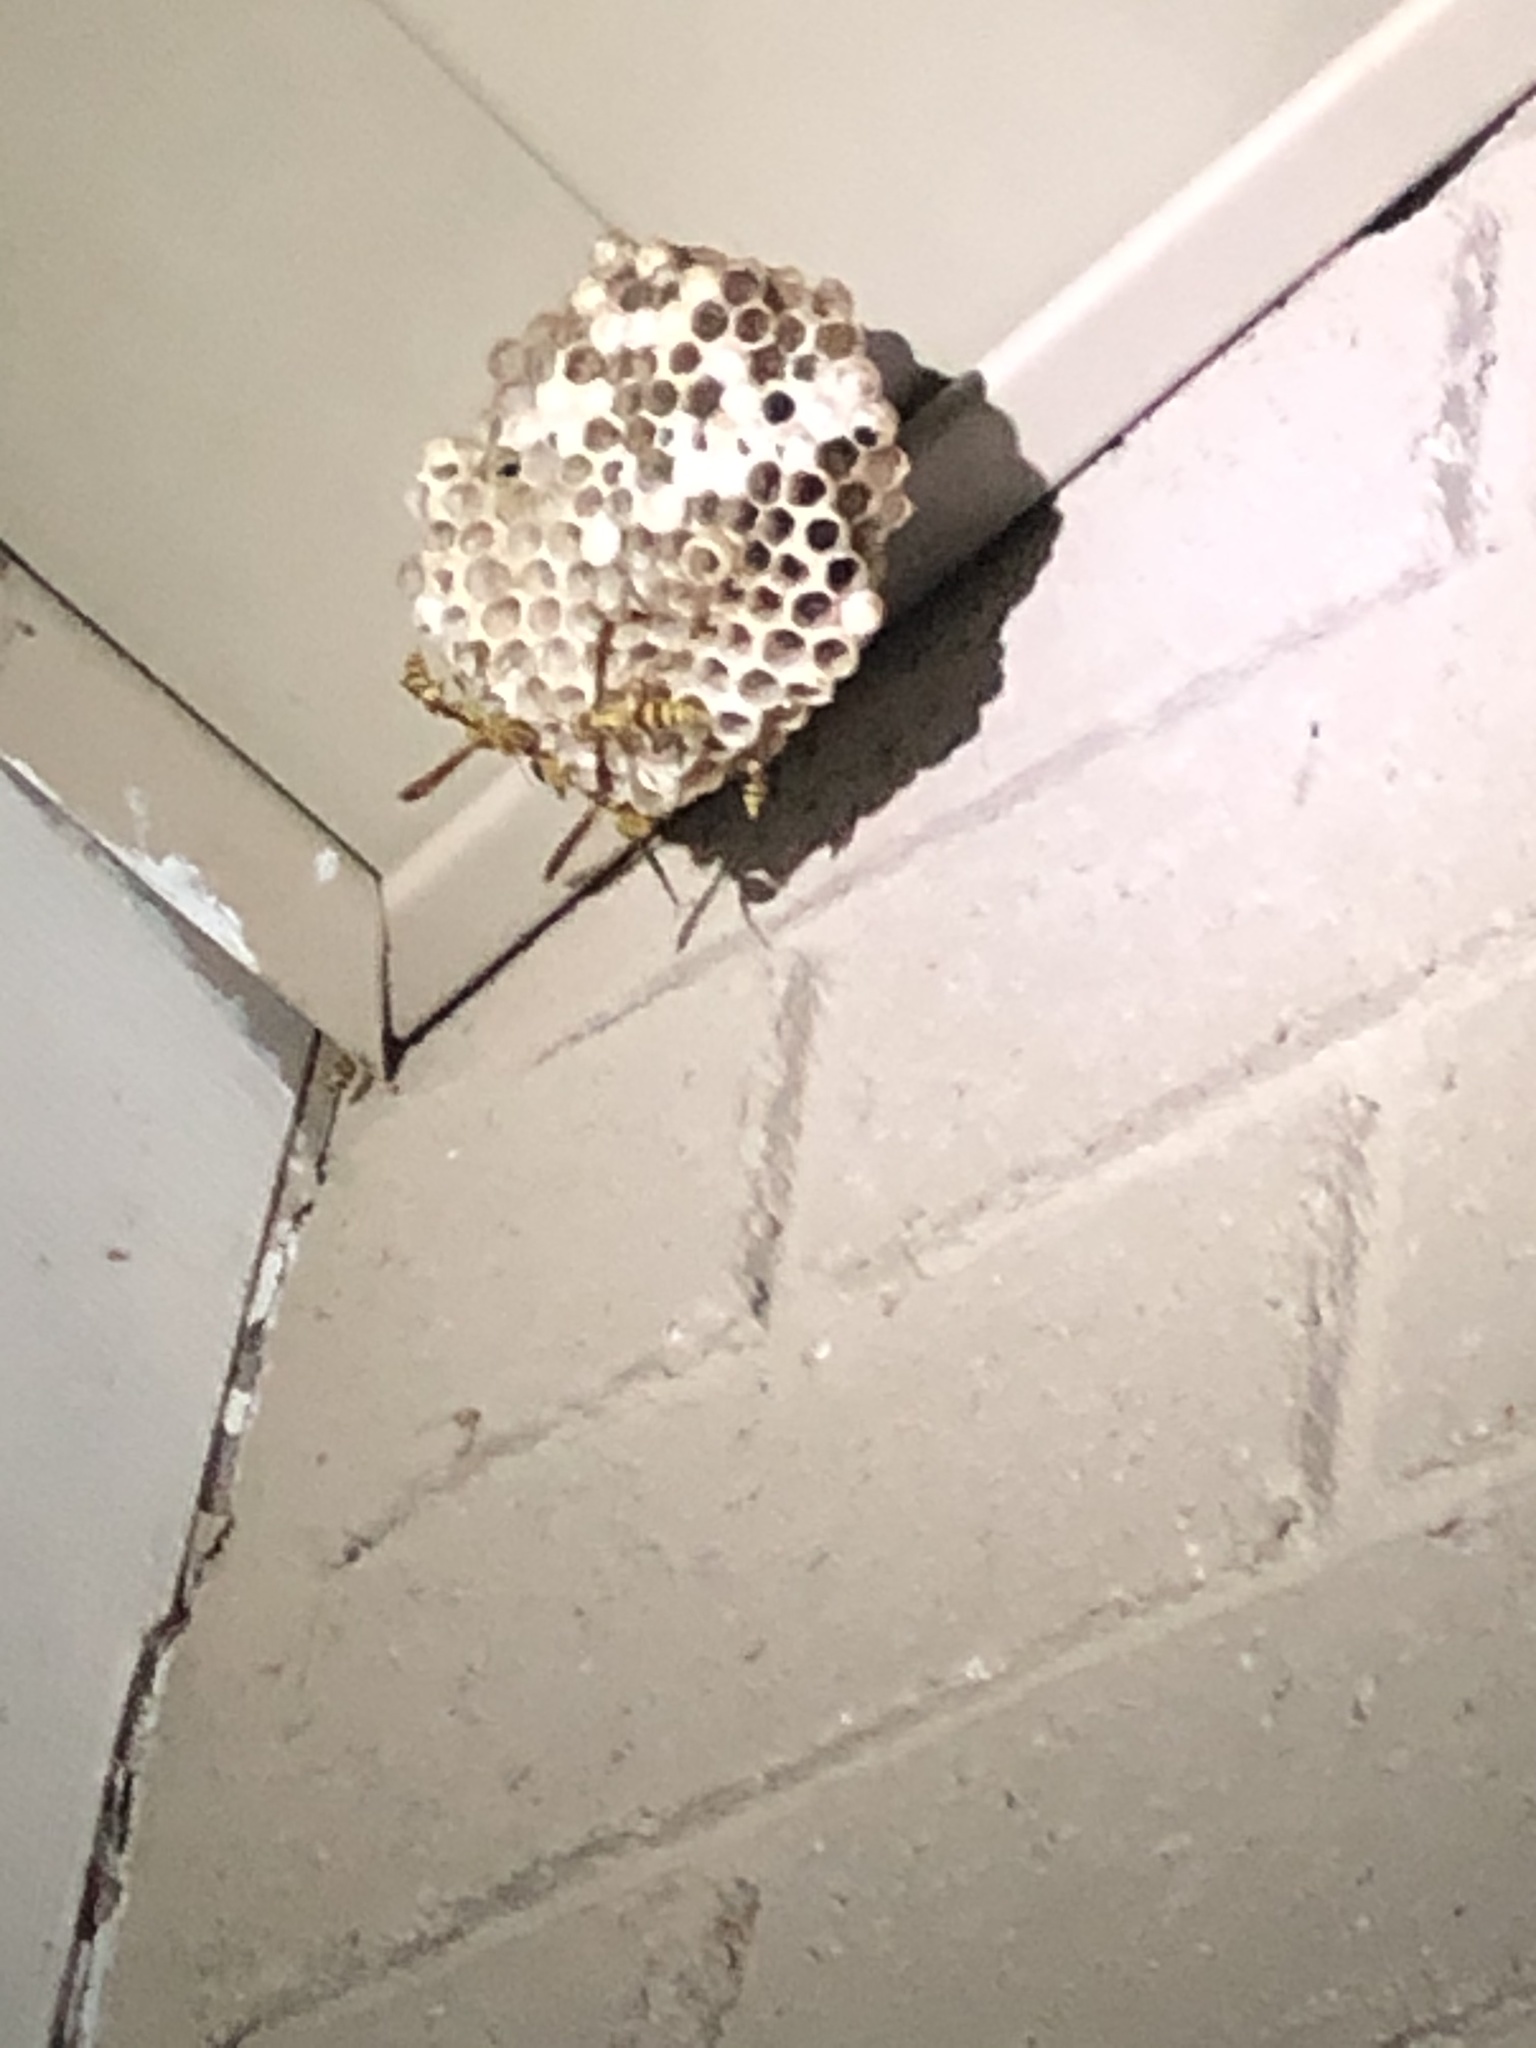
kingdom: Animalia
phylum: Arthropoda
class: Insecta
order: Hymenoptera
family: Eumenidae
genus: Polistes
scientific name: Polistes exclamans
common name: Paper wasp
